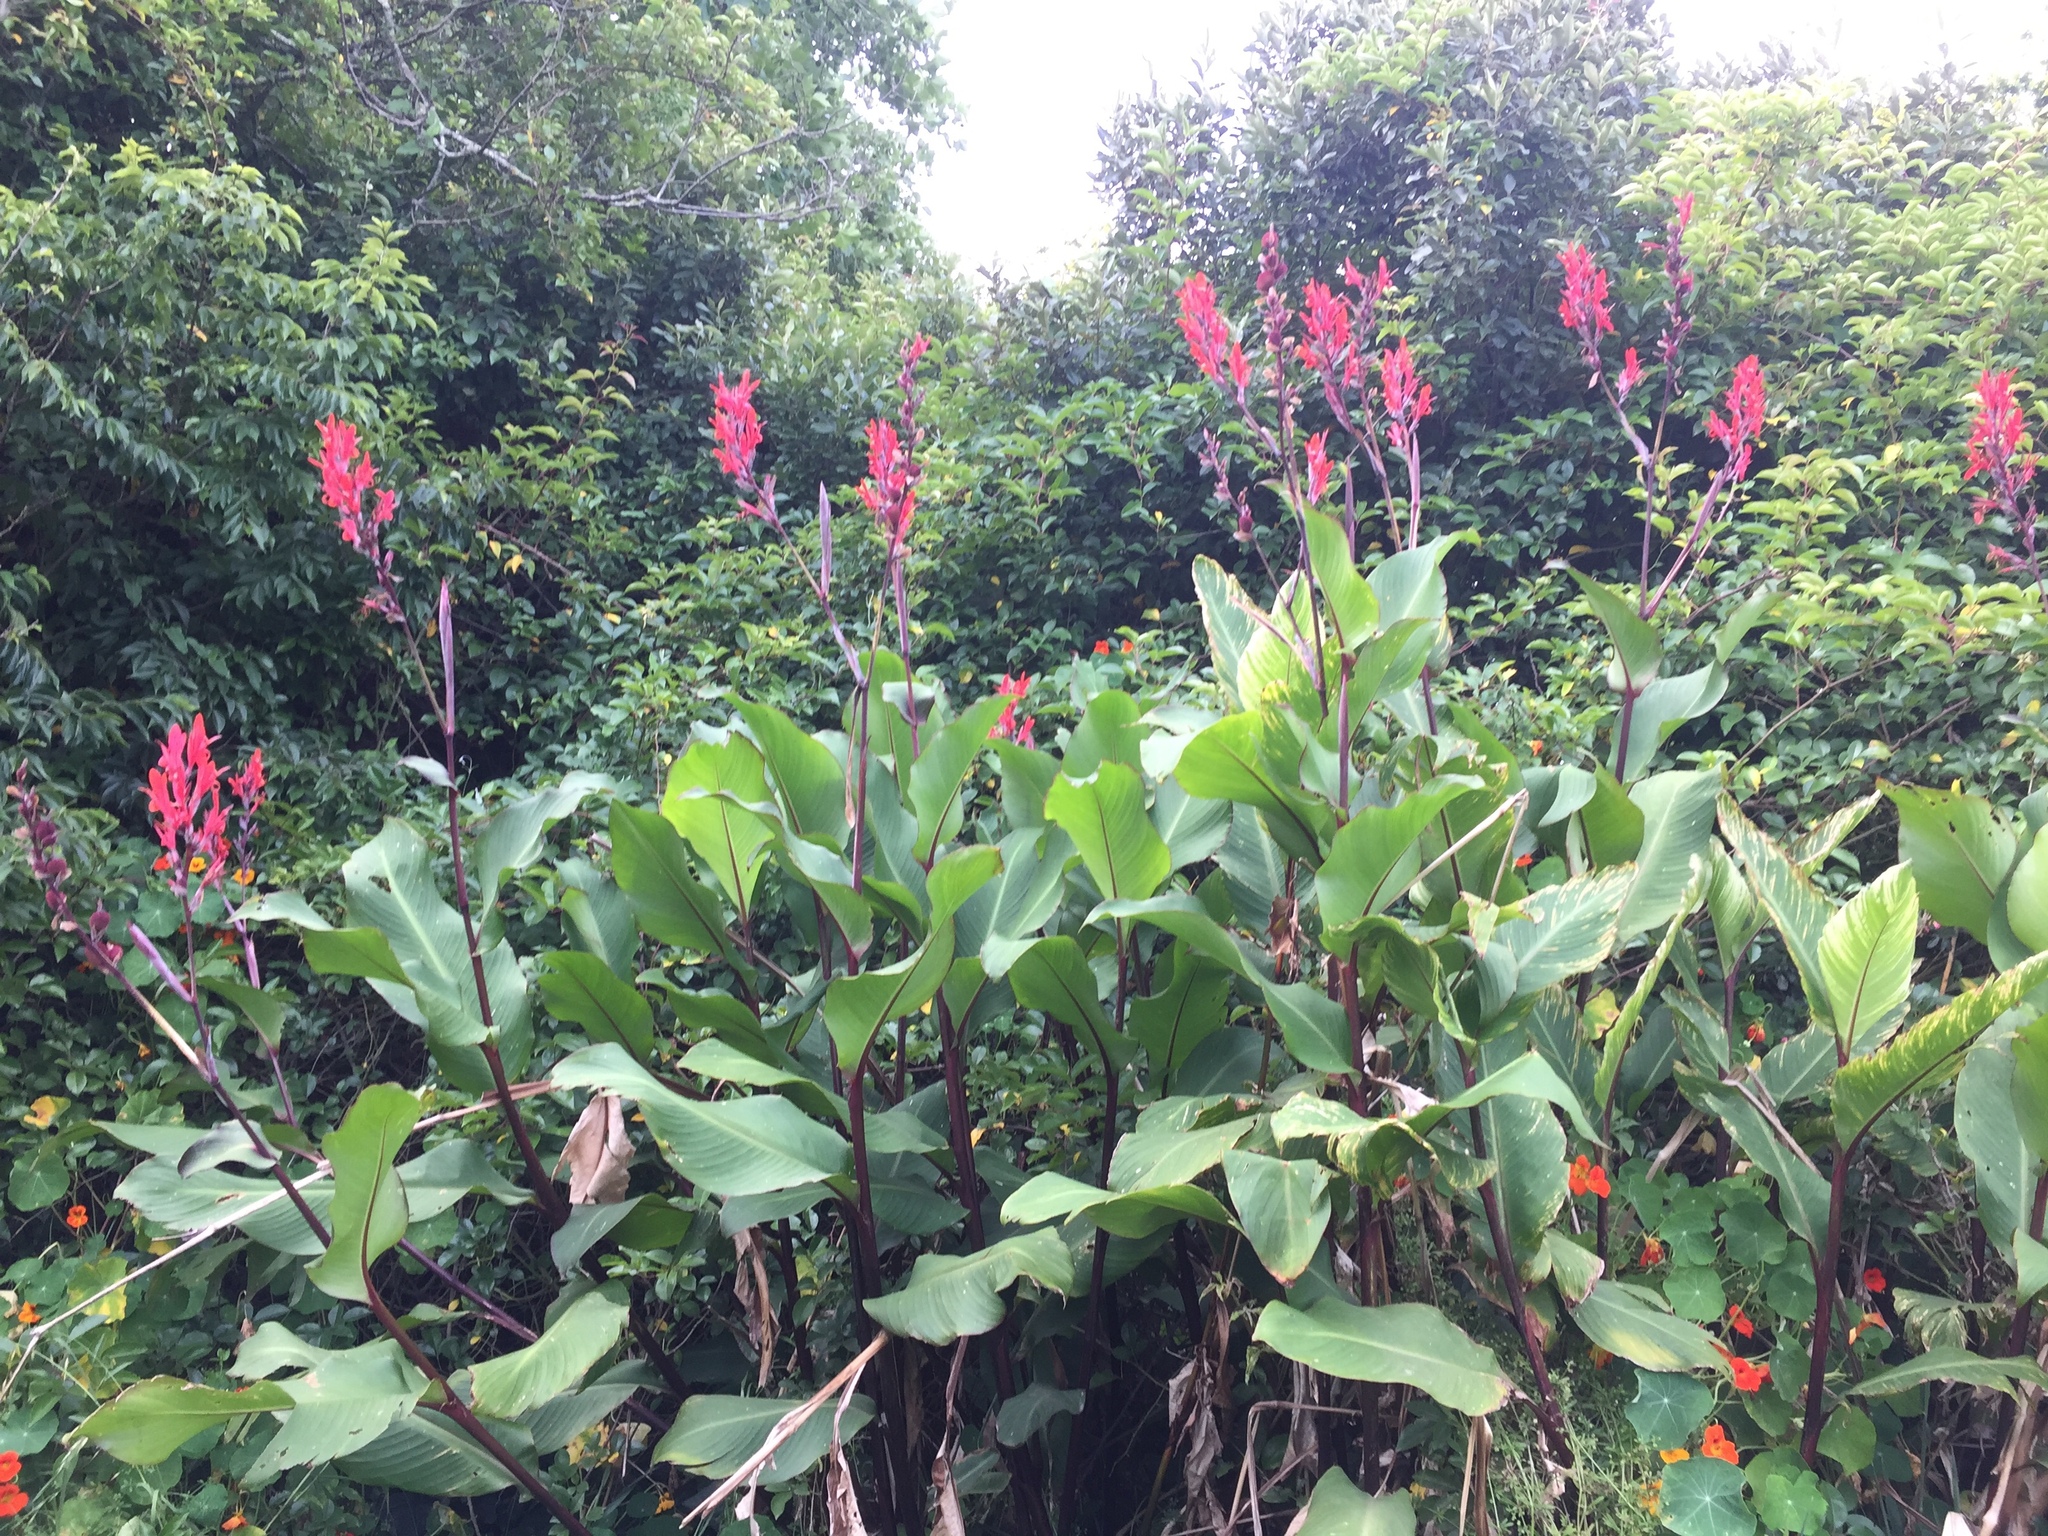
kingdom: Plantae
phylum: Tracheophyta
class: Liliopsida
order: Zingiberales
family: Cannaceae
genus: Canna
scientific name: Canna indica
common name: Indian shot
